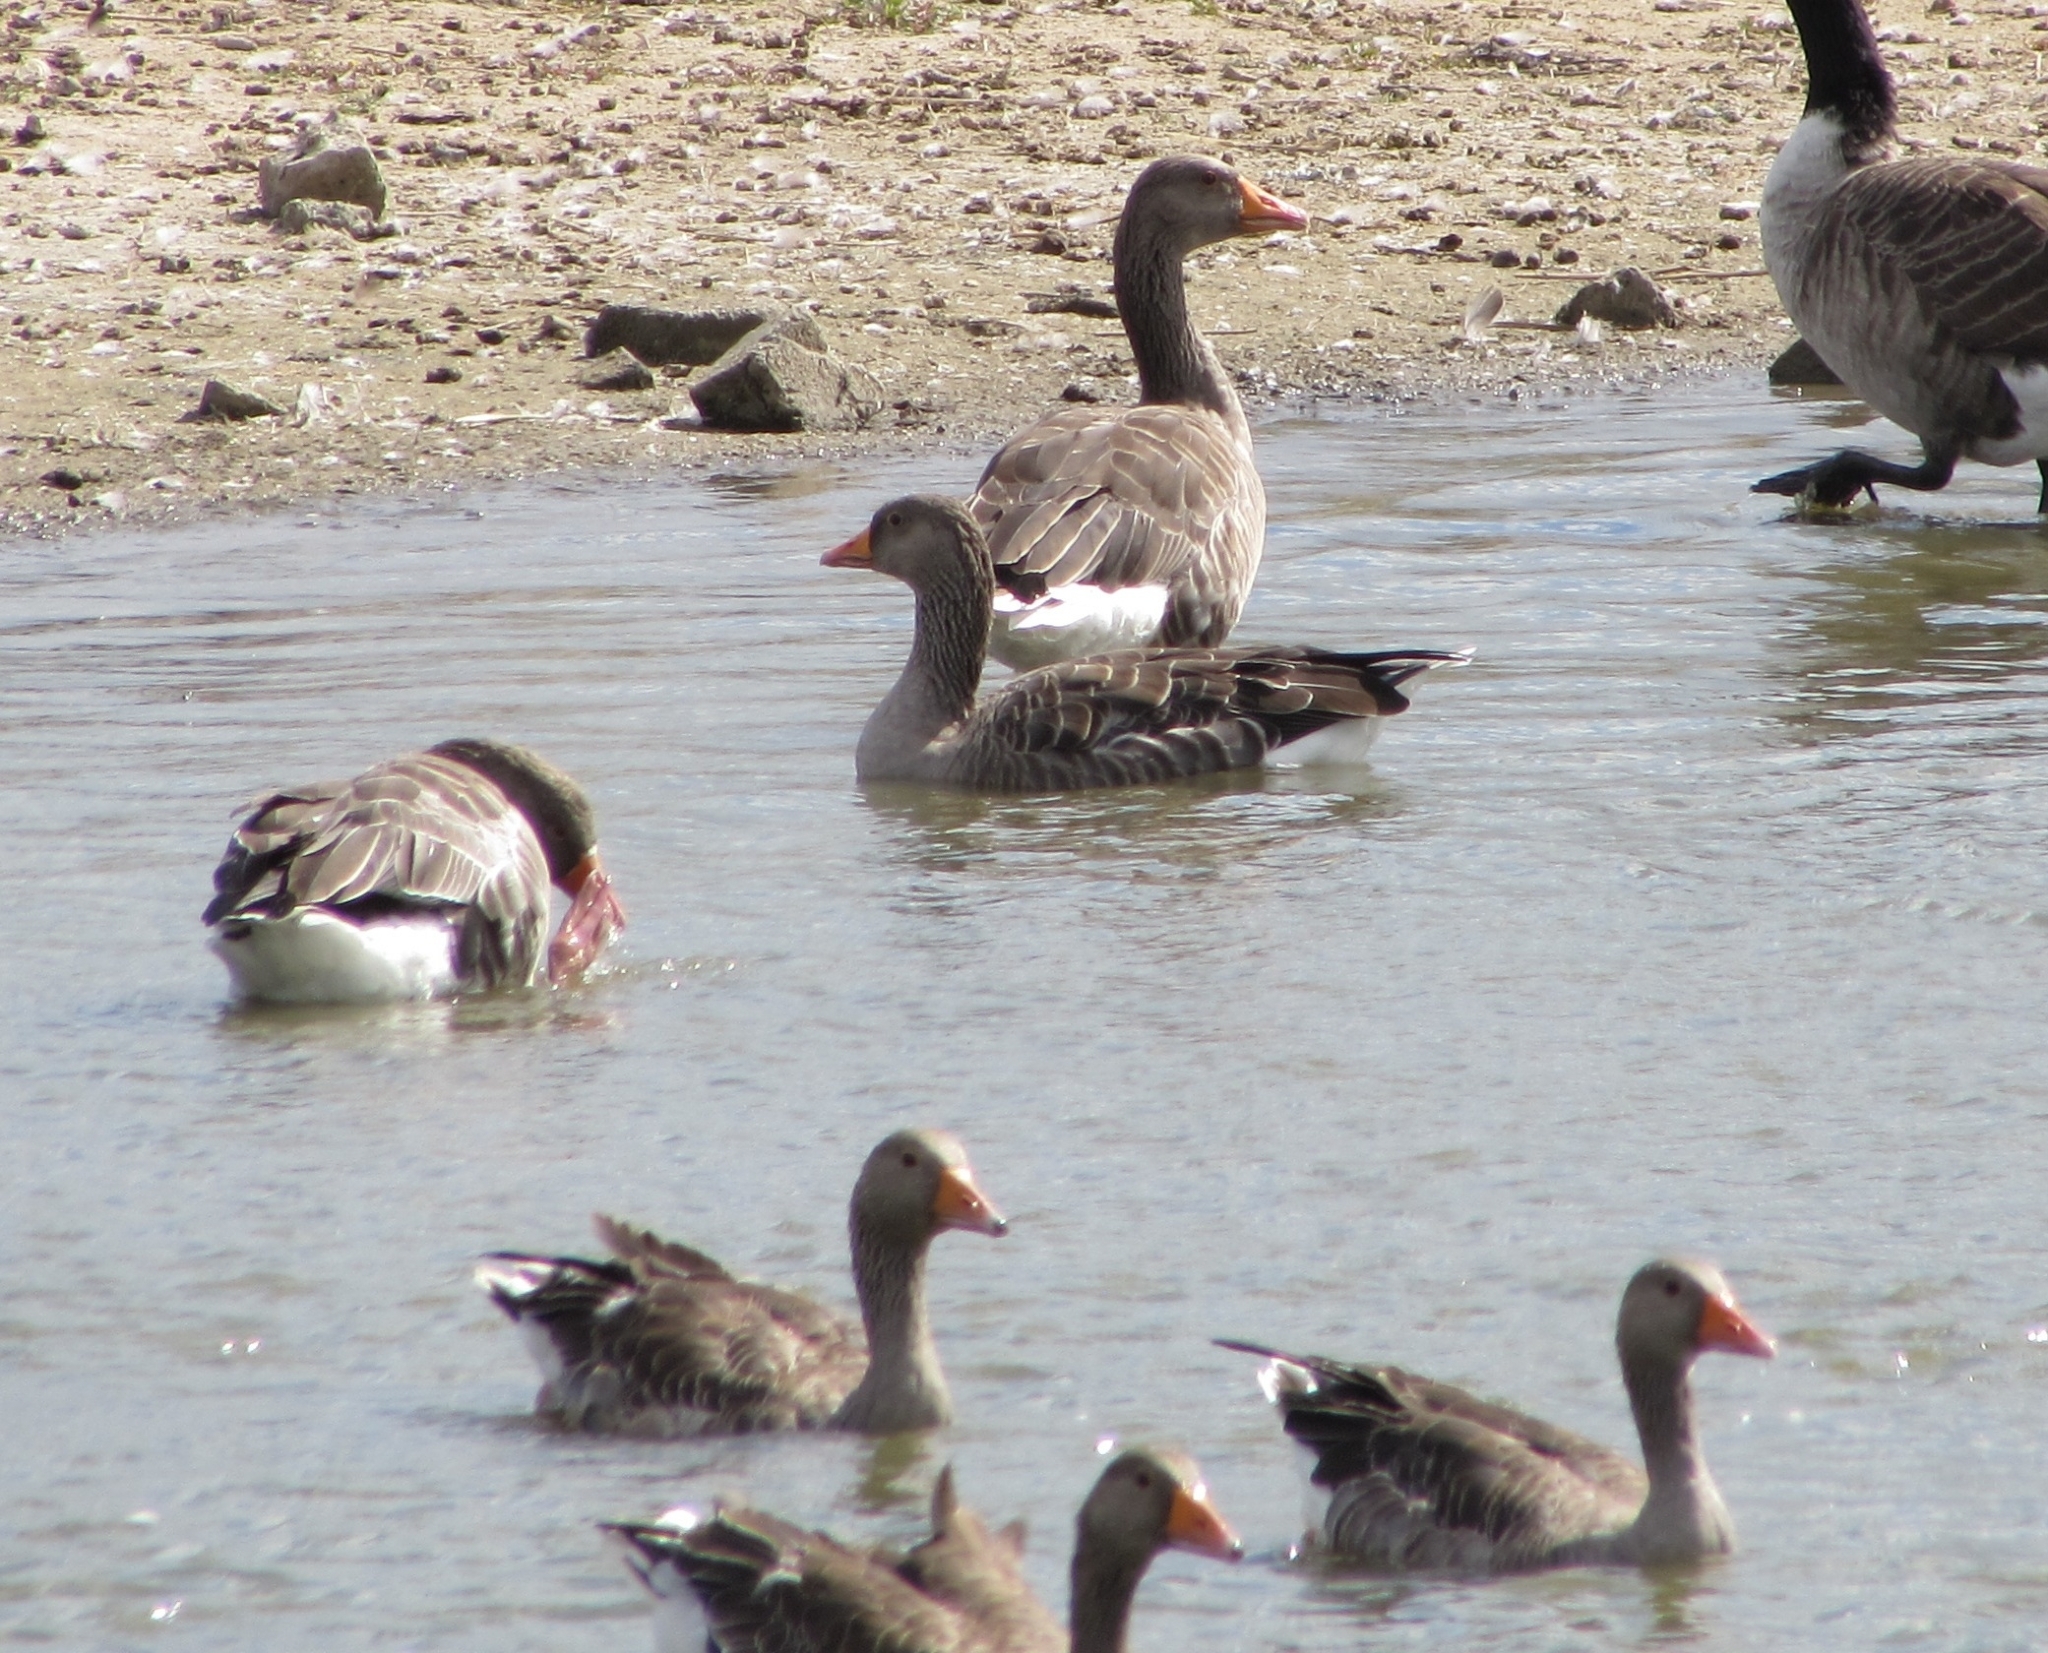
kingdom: Animalia
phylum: Chordata
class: Aves
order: Anseriformes
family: Anatidae
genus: Anser
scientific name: Anser anser
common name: Greylag goose
